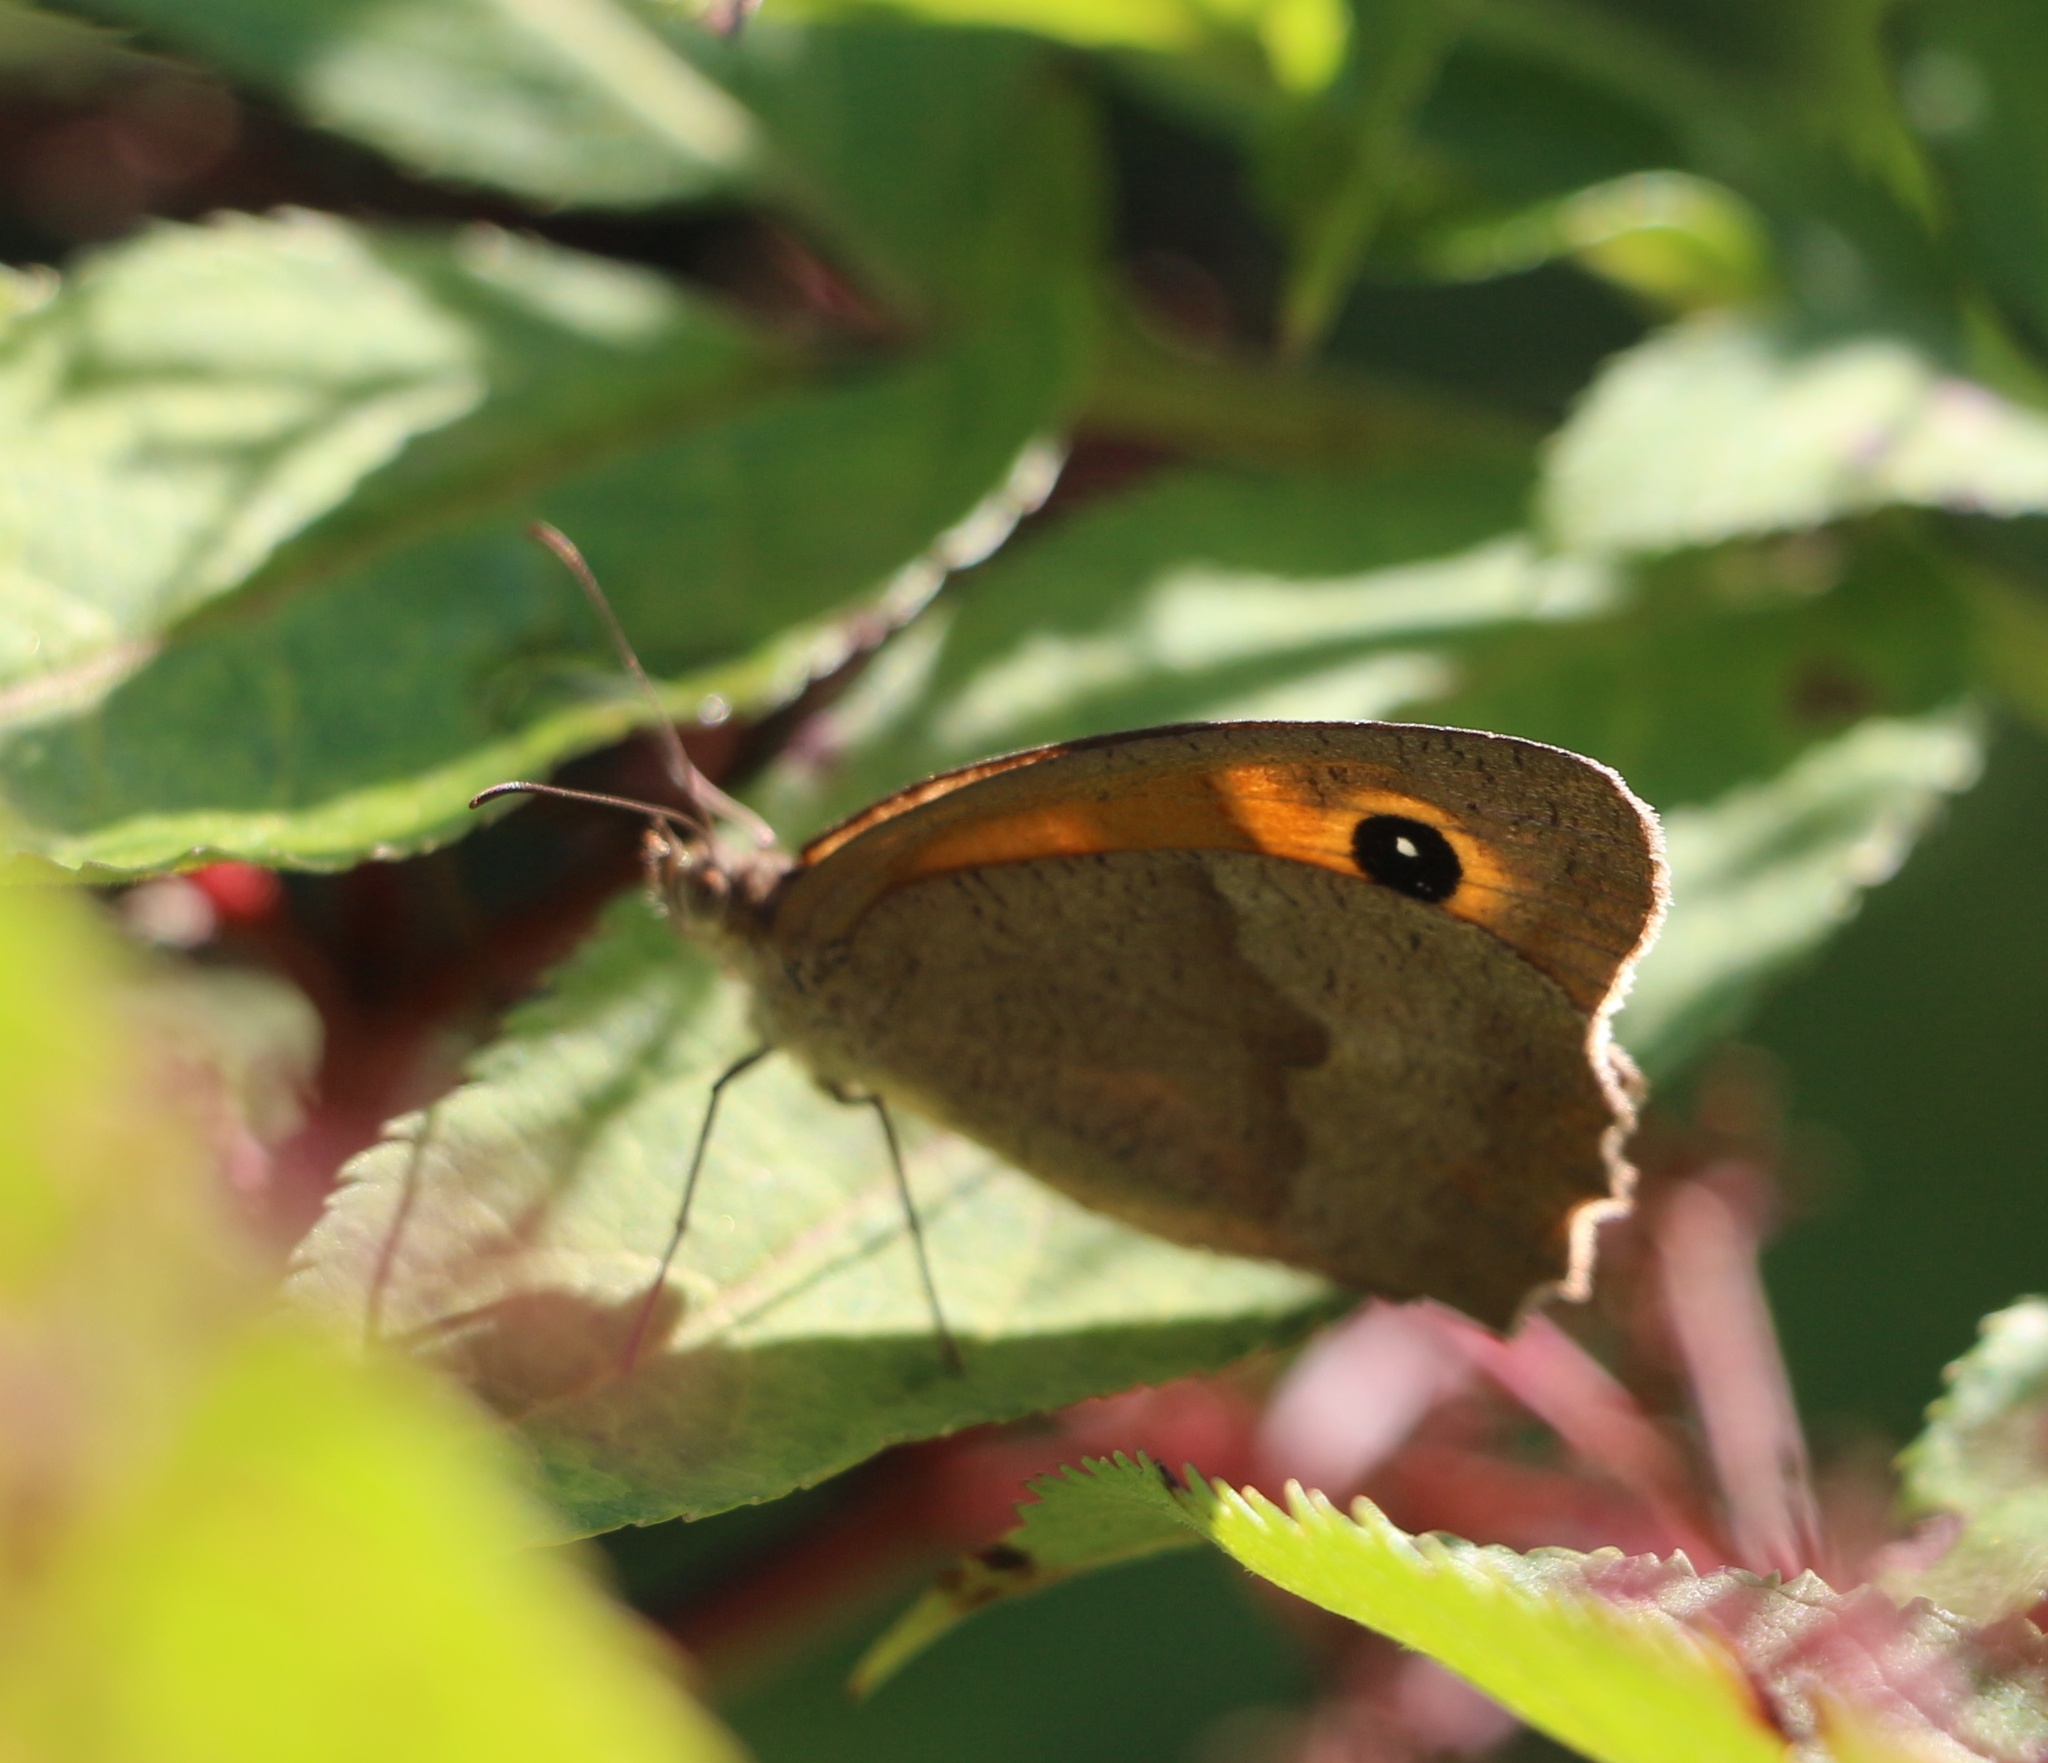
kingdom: Animalia
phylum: Arthropoda
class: Insecta
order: Lepidoptera
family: Nymphalidae
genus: Maniola
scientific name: Maniola jurtina
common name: Meadow brown
